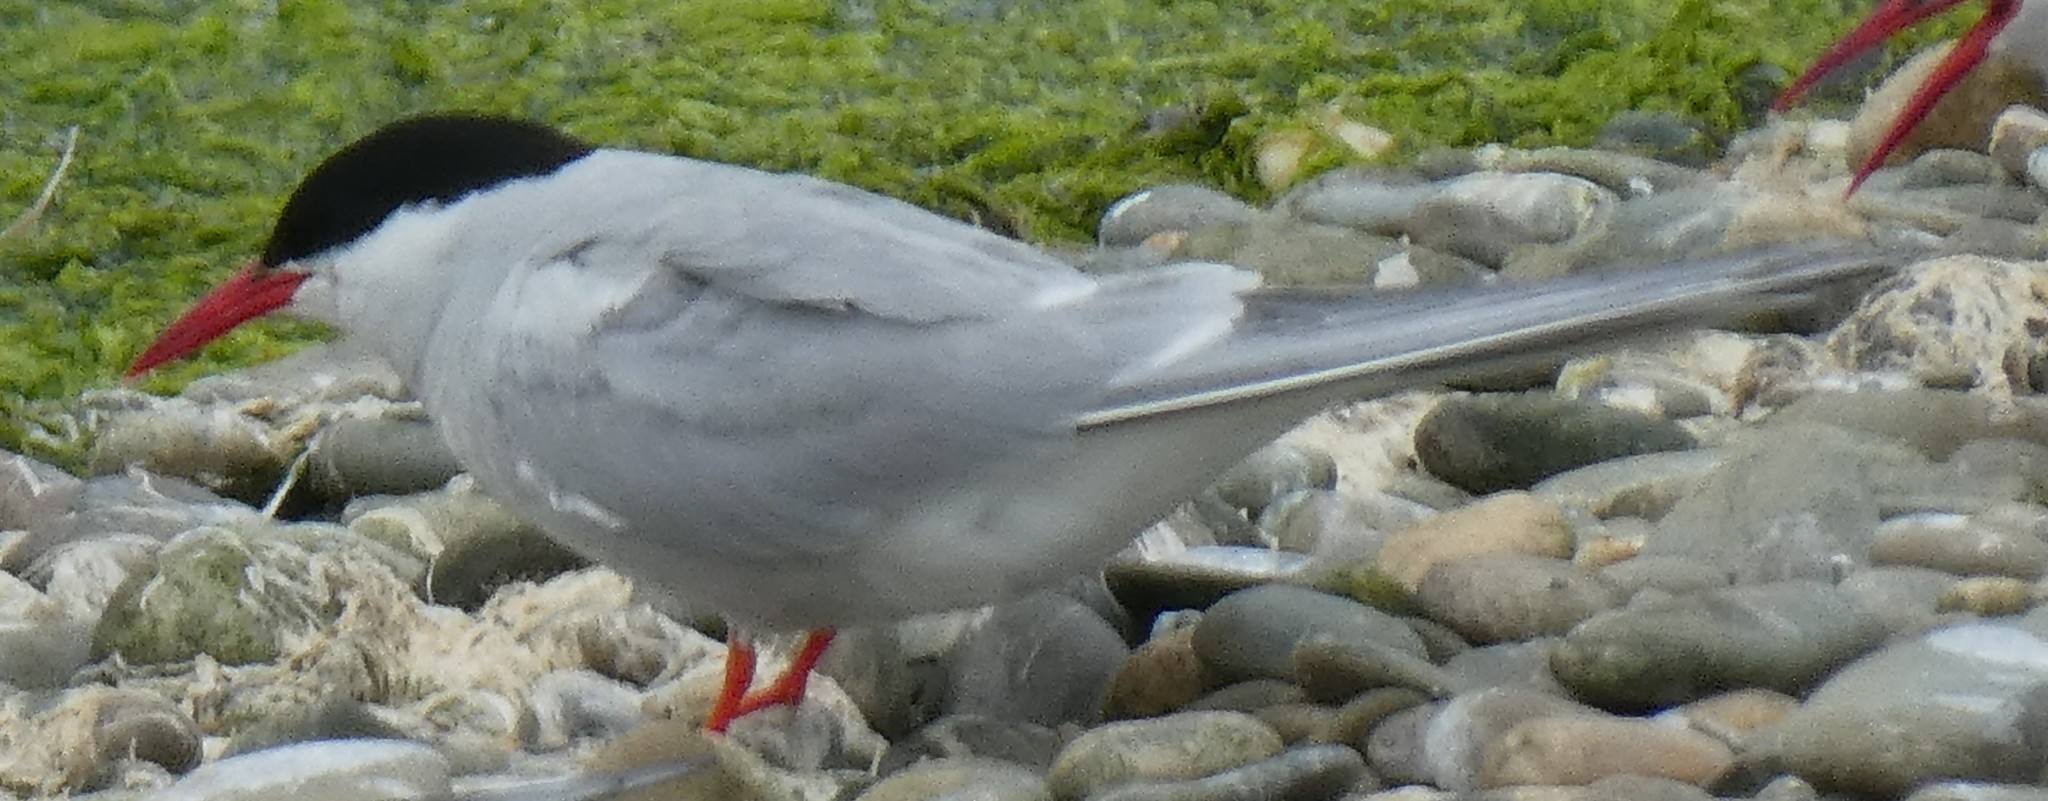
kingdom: Animalia
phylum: Chordata
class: Aves
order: Charadriiformes
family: Laridae
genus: Sterna
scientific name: Sterna paradisaea
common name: Arctic tern
